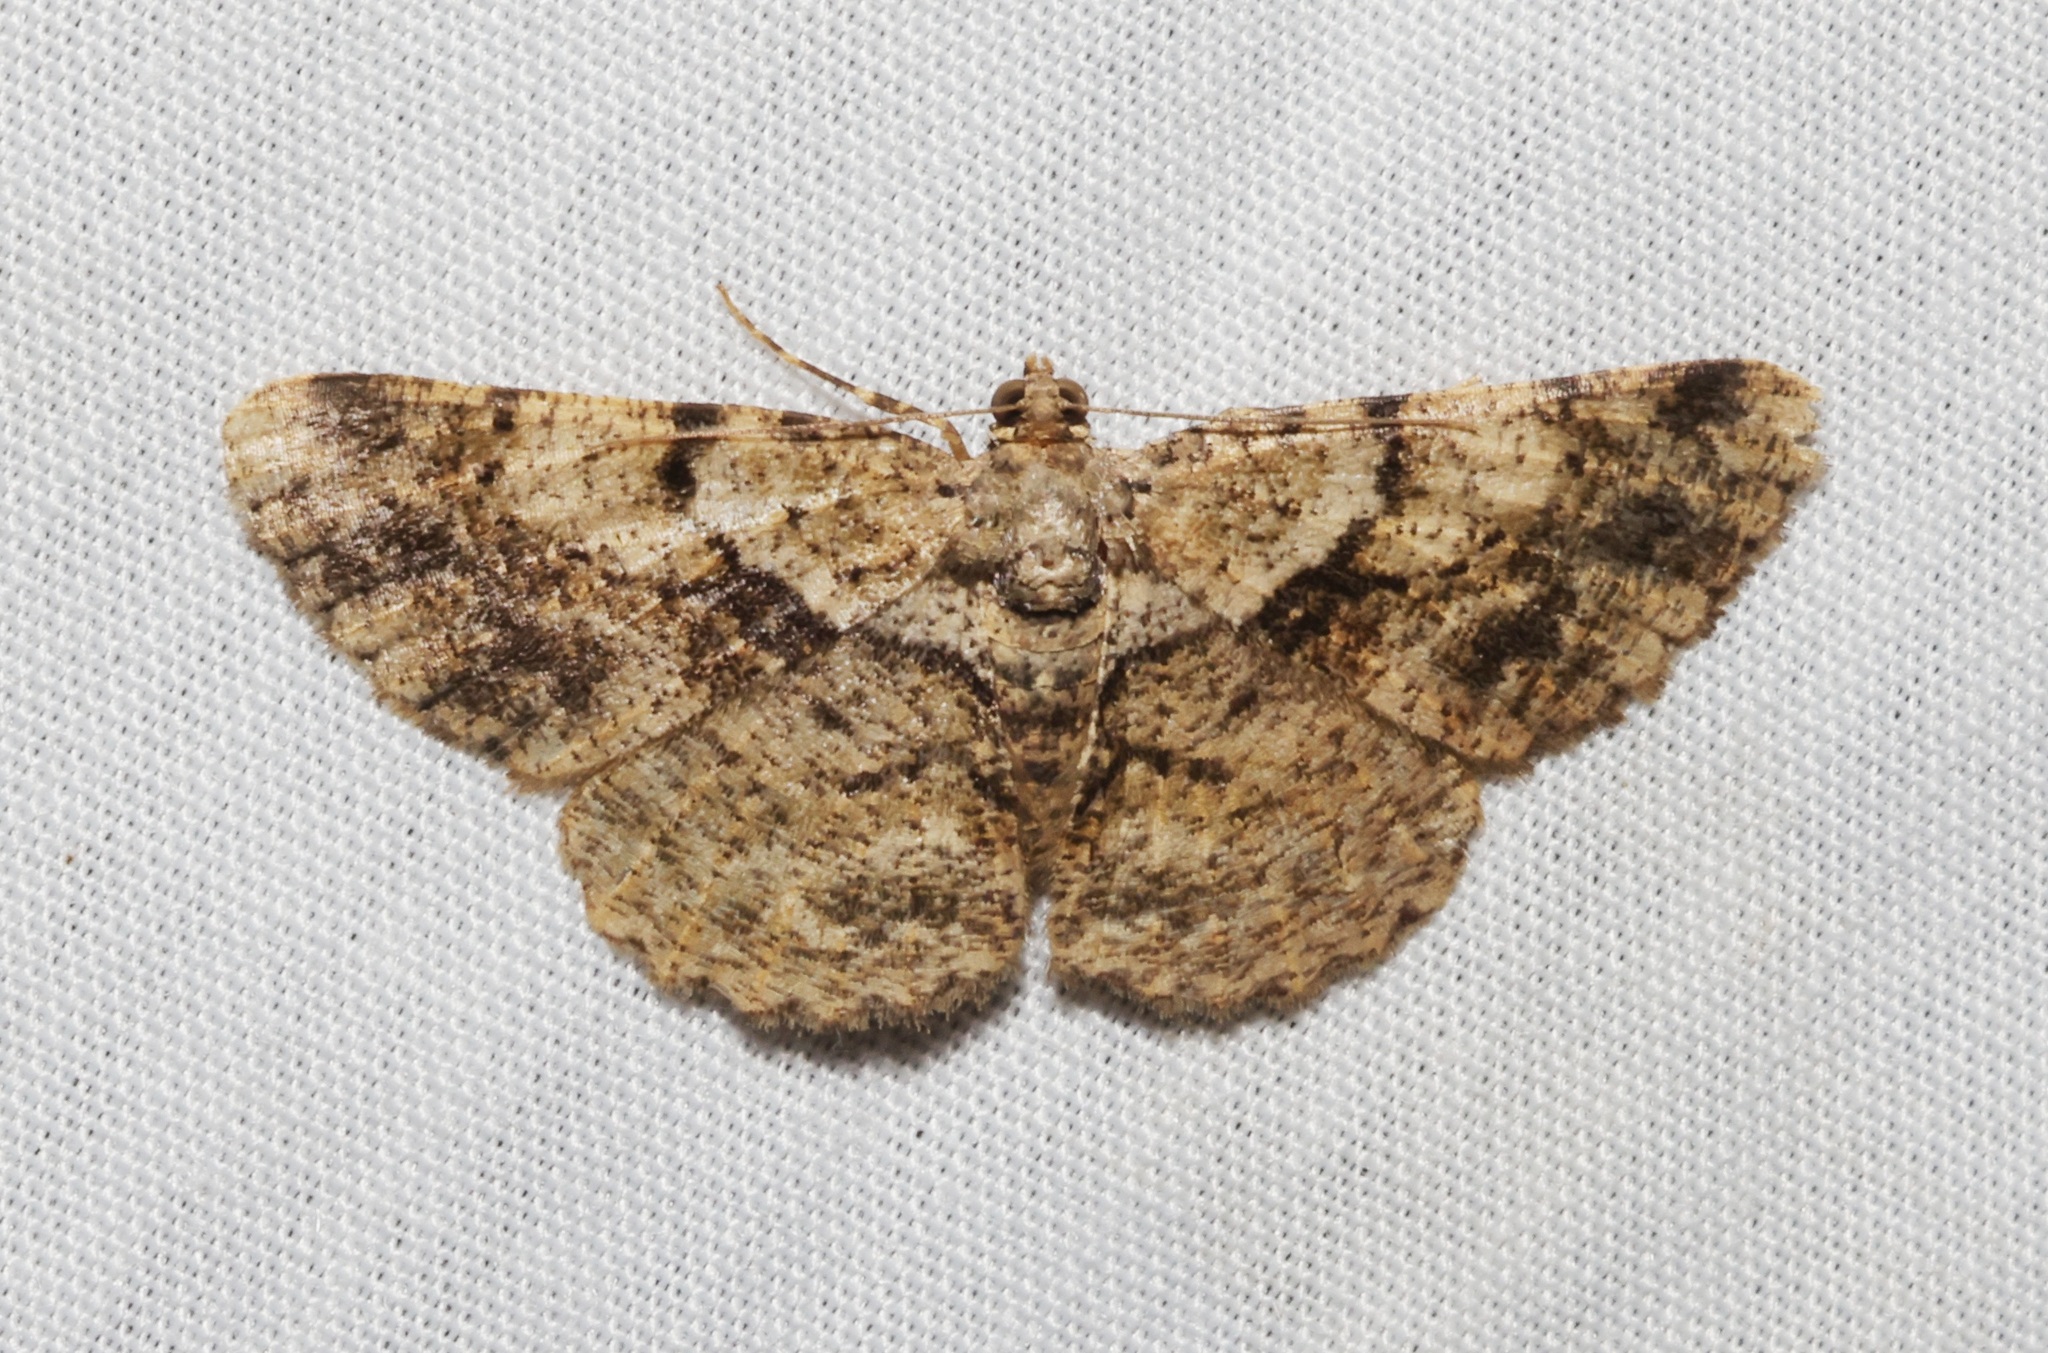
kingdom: Animalia
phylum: Arthropoda
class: Insecta
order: Lepidoptera
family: Geometridae
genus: Psilalcis
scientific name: Psilalcis galsworthyi
